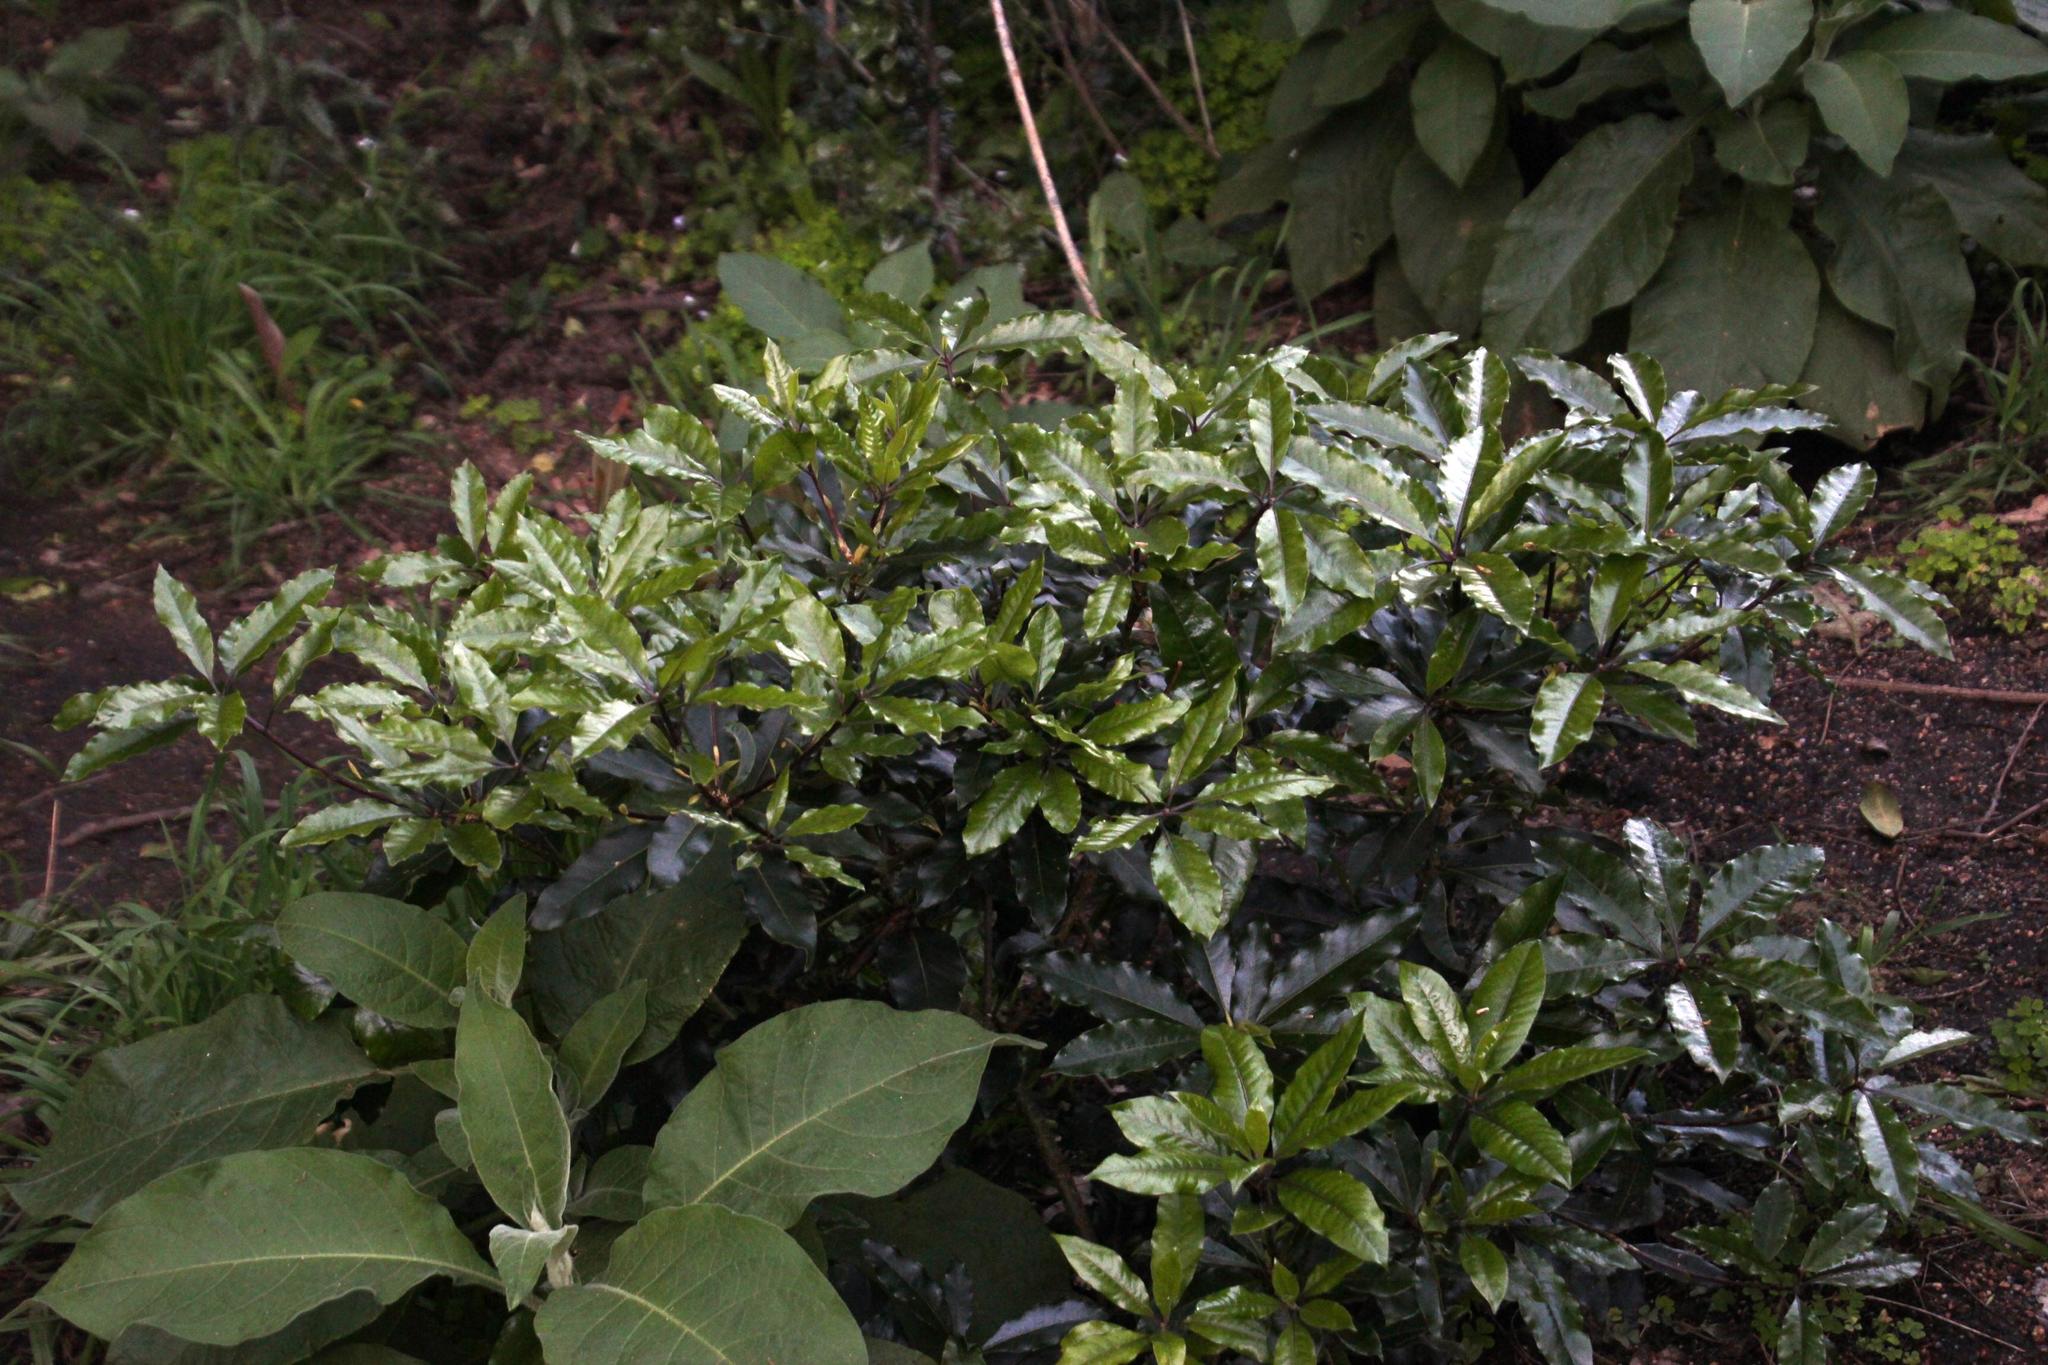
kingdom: Plantae
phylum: Tracheophyta
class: Magnoliopsida
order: Apiales
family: Pittosporaceae
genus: Pittosporum
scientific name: Pittosporum undulatum
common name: Australian cheesewood
